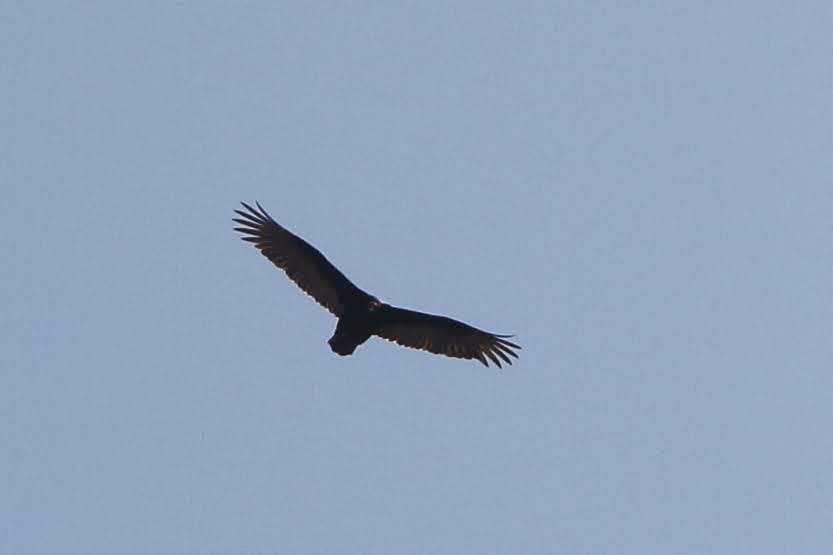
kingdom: Animalia
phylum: Chordata
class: Aves
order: Accipitriformes
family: Cathartidae
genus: Cathartes
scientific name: Cathartes aura
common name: Turkey vulture
